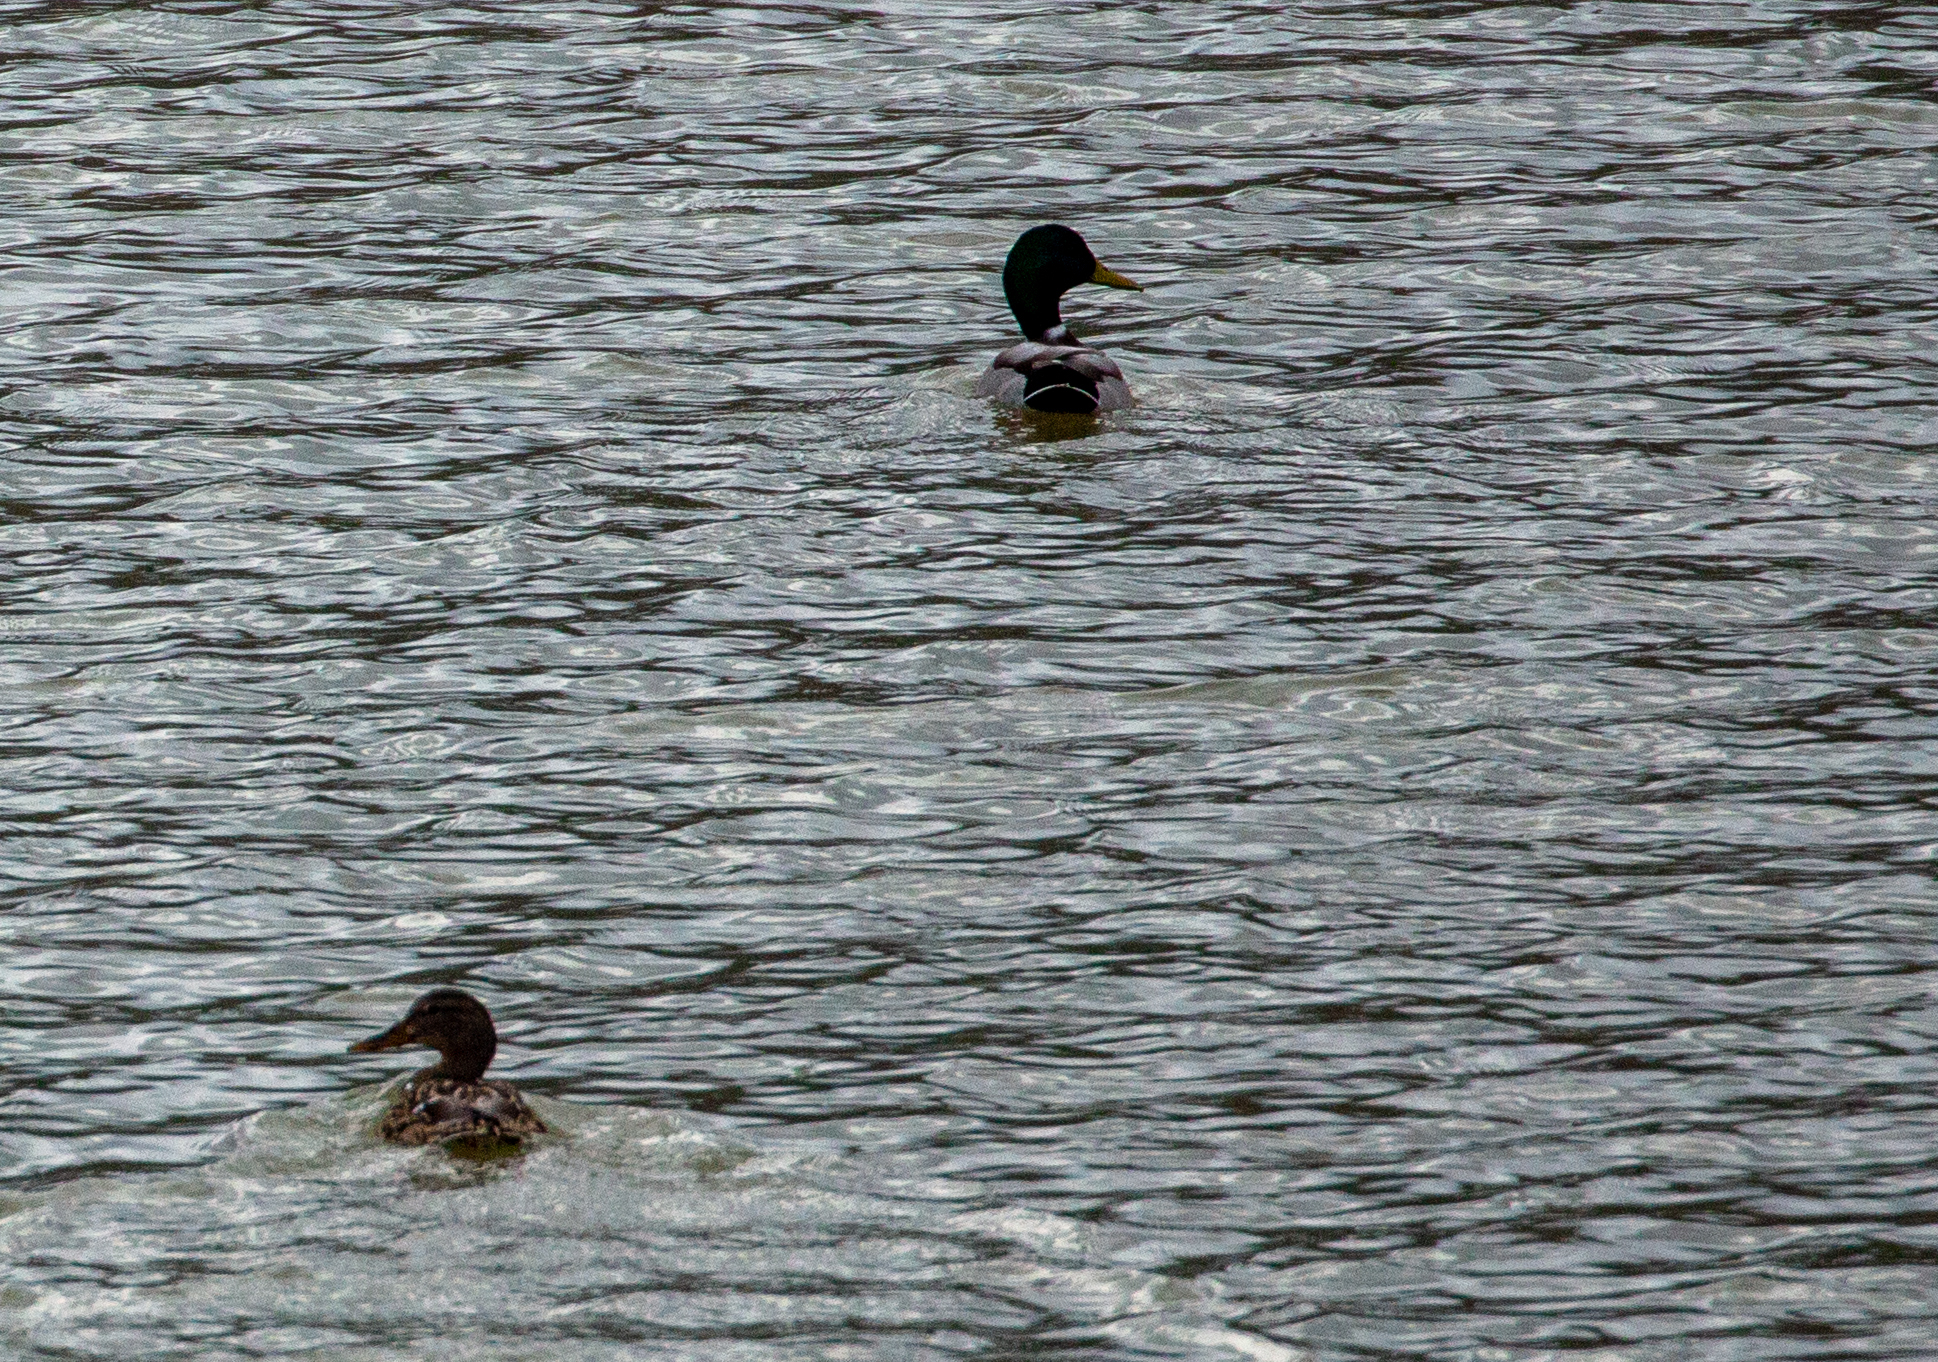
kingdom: Animalia
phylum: Chordata
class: Aves
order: Anseriformes
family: Anatidae
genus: Anas
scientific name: Anas platyrhynchos
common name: Mallard
